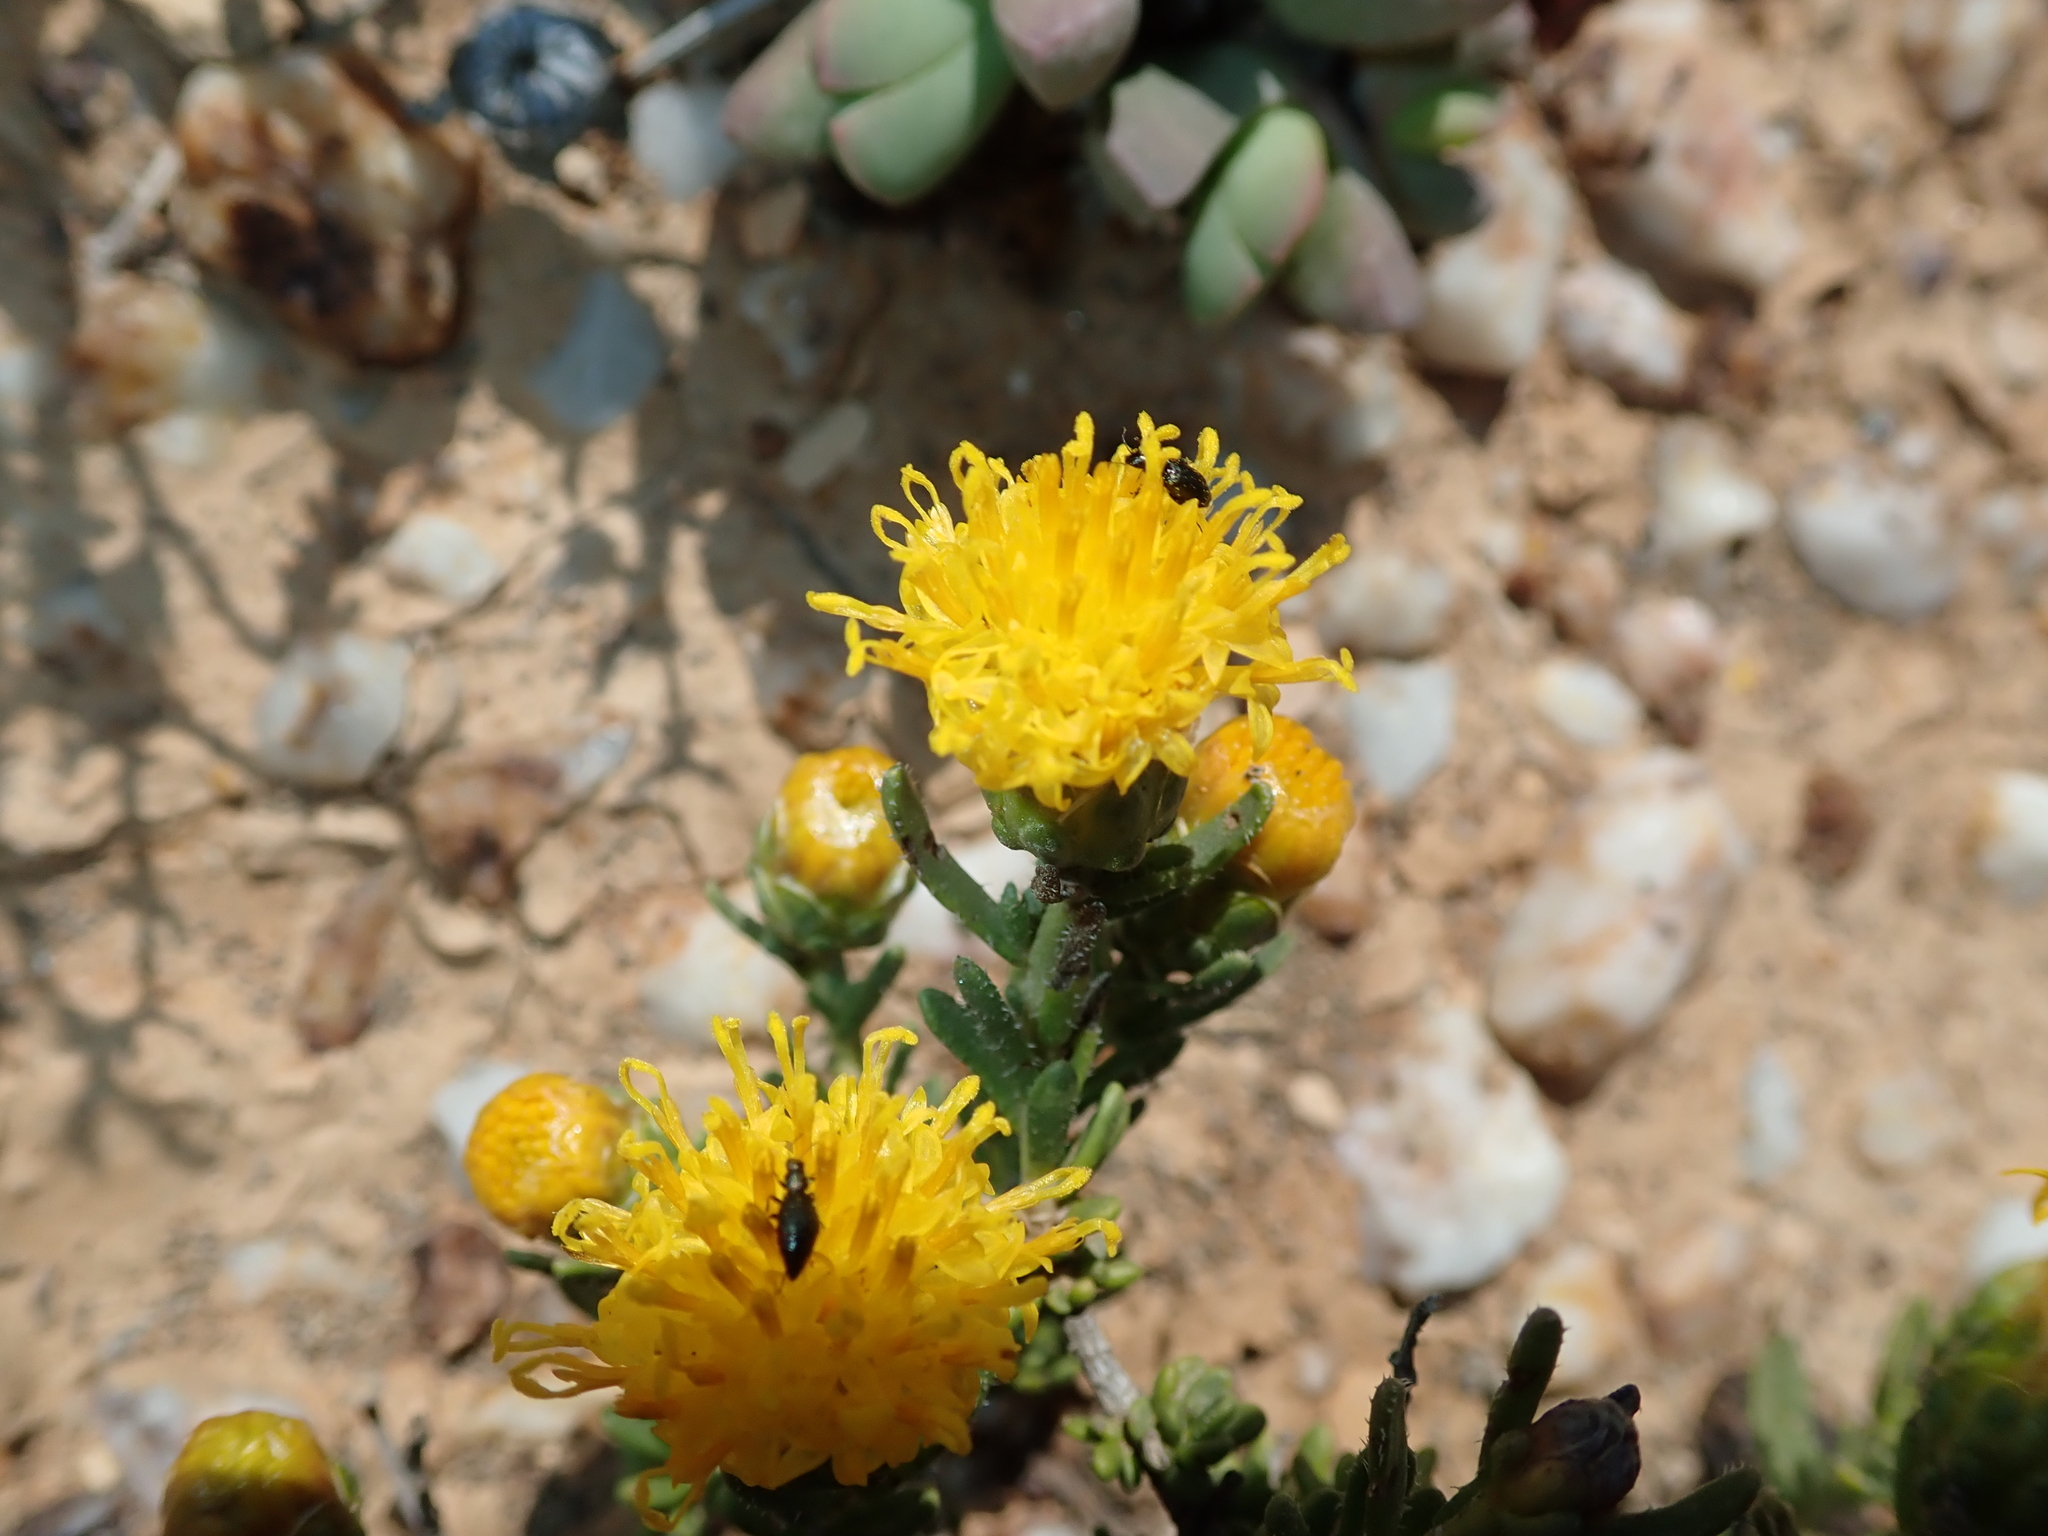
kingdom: Plantae
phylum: Tracheophyta
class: Magnoliopsida
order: Asterales
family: Asteraceae
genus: Pteronia
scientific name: Pteronia villosa
